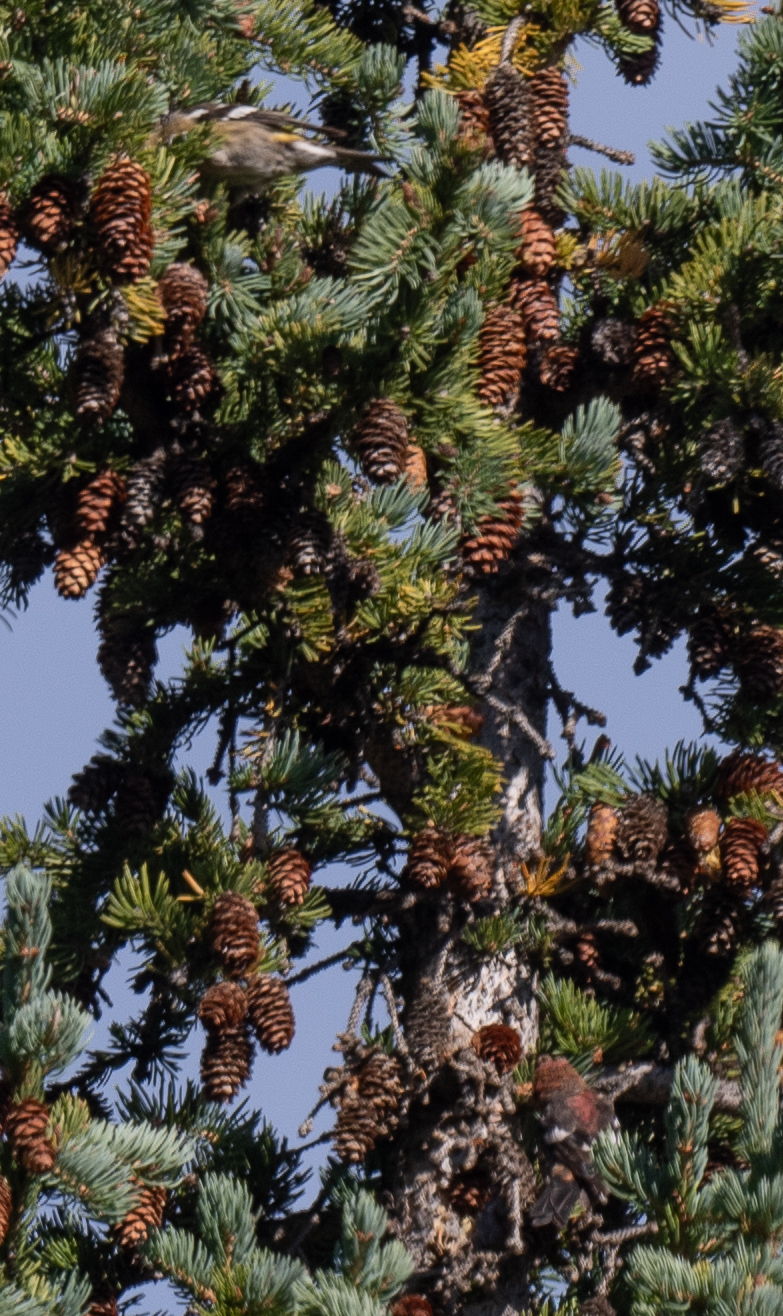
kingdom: Animalia
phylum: Chordata
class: Aves
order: Passeriformes
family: Fringillidae
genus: Loxia
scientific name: Loxia leucoptera
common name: Two-barred crossbill
